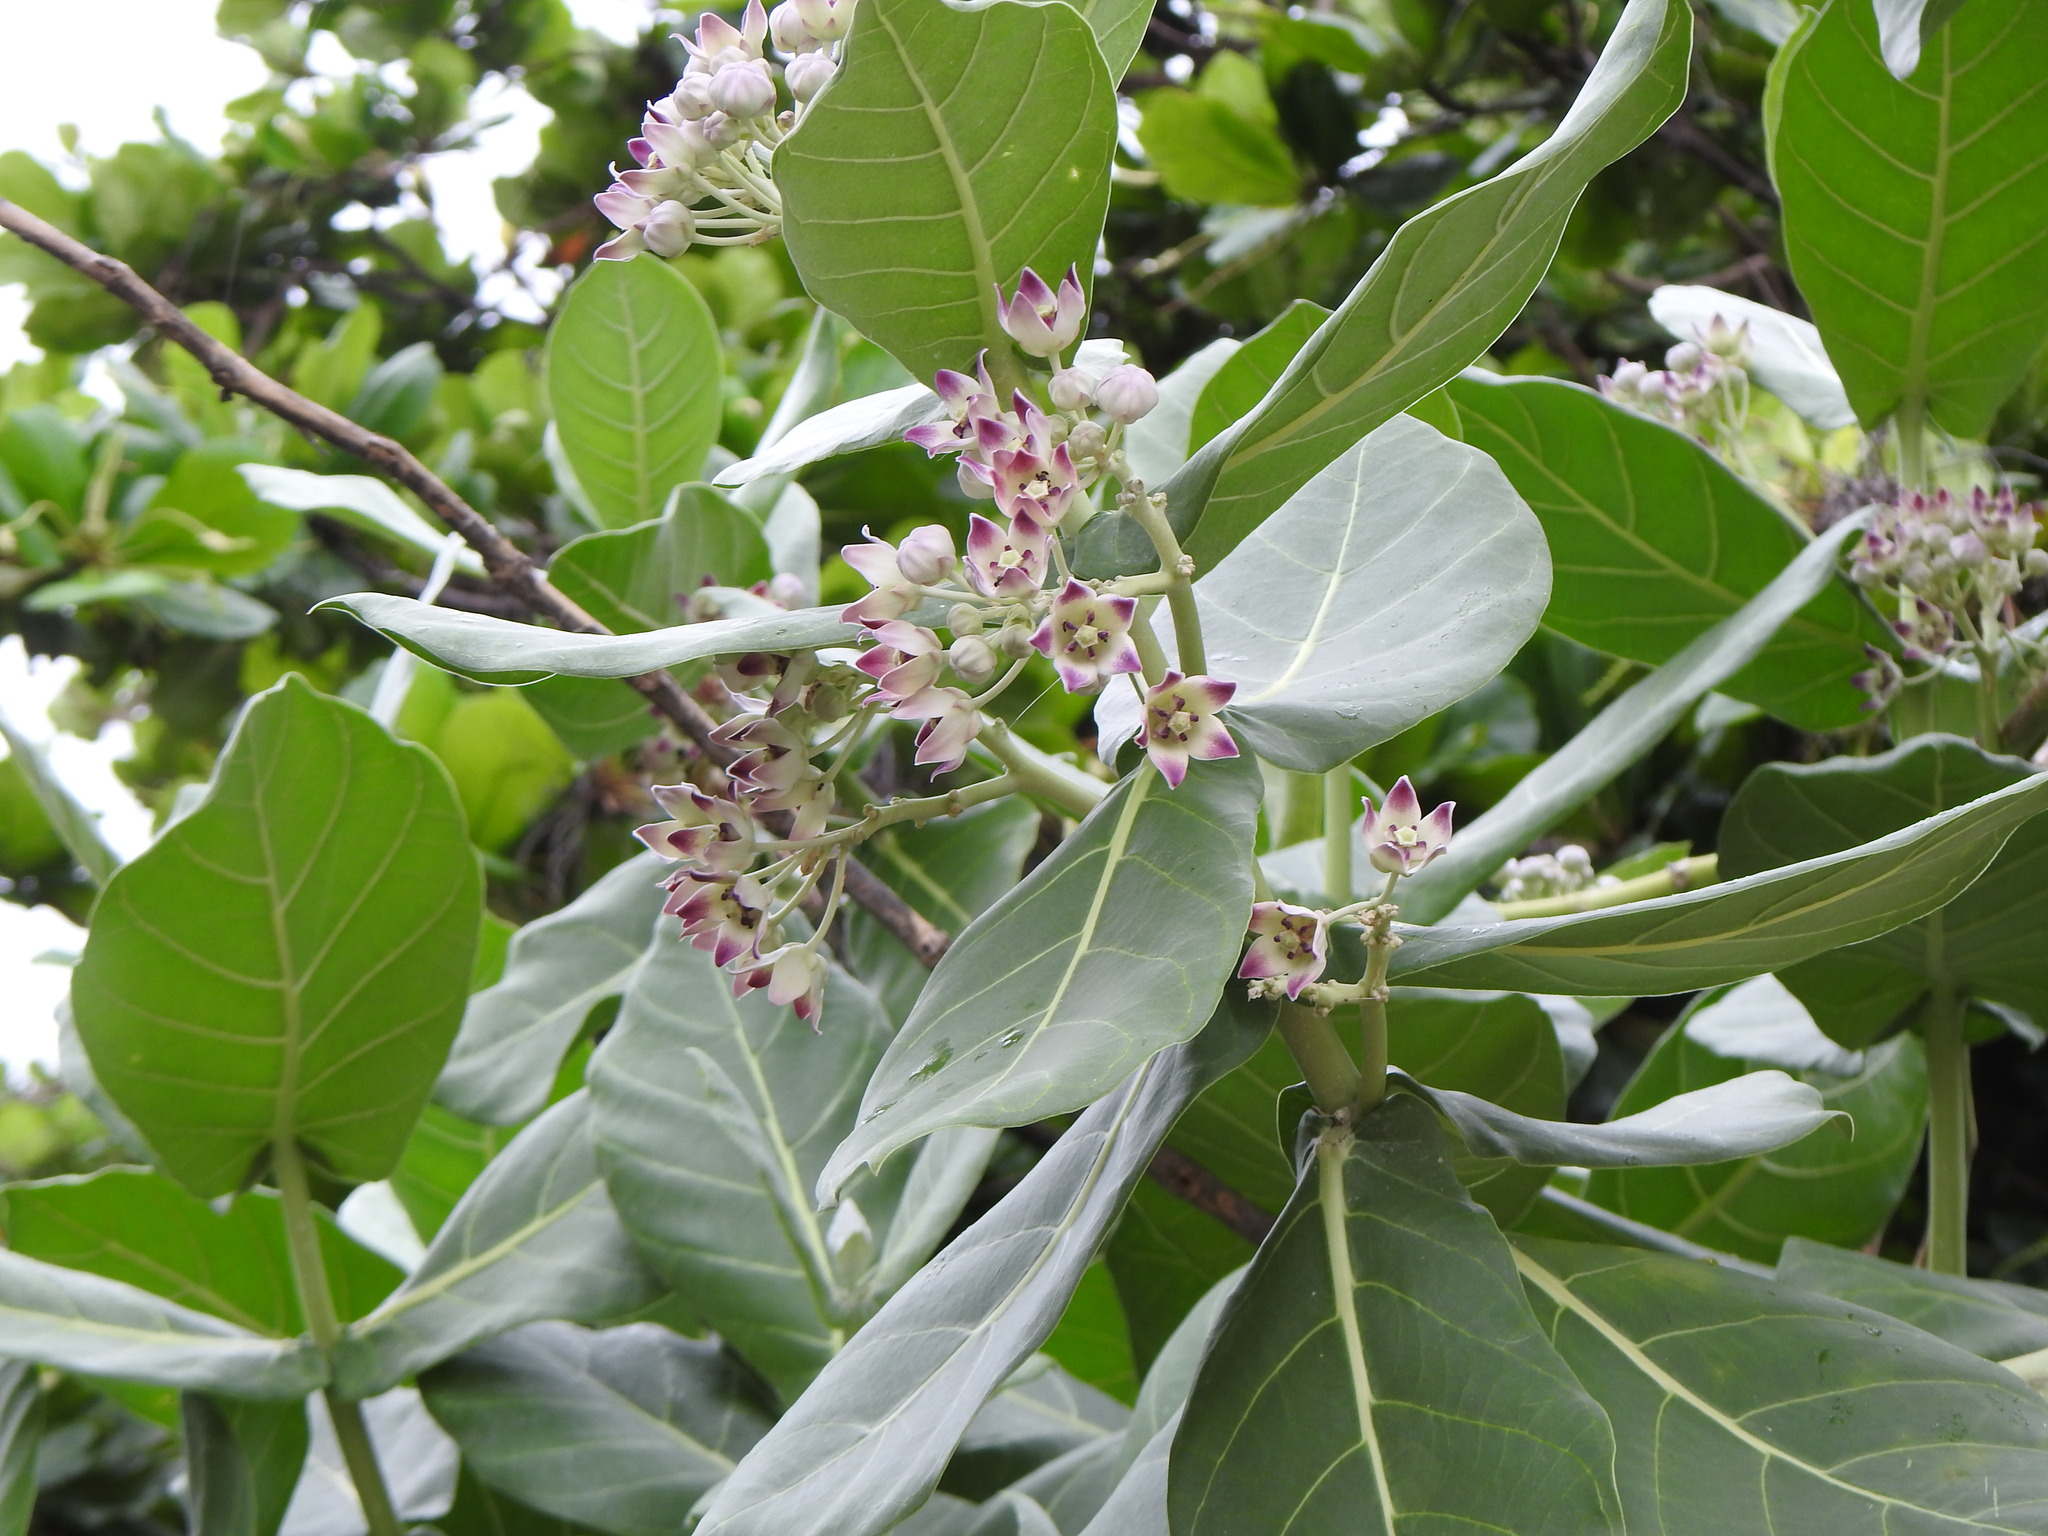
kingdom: Plantae
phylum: Tracheophyta
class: Magnoliopsida
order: Gentianales
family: Apocynaceae
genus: Calotropis
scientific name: Calotropis procera
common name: Roostertree
